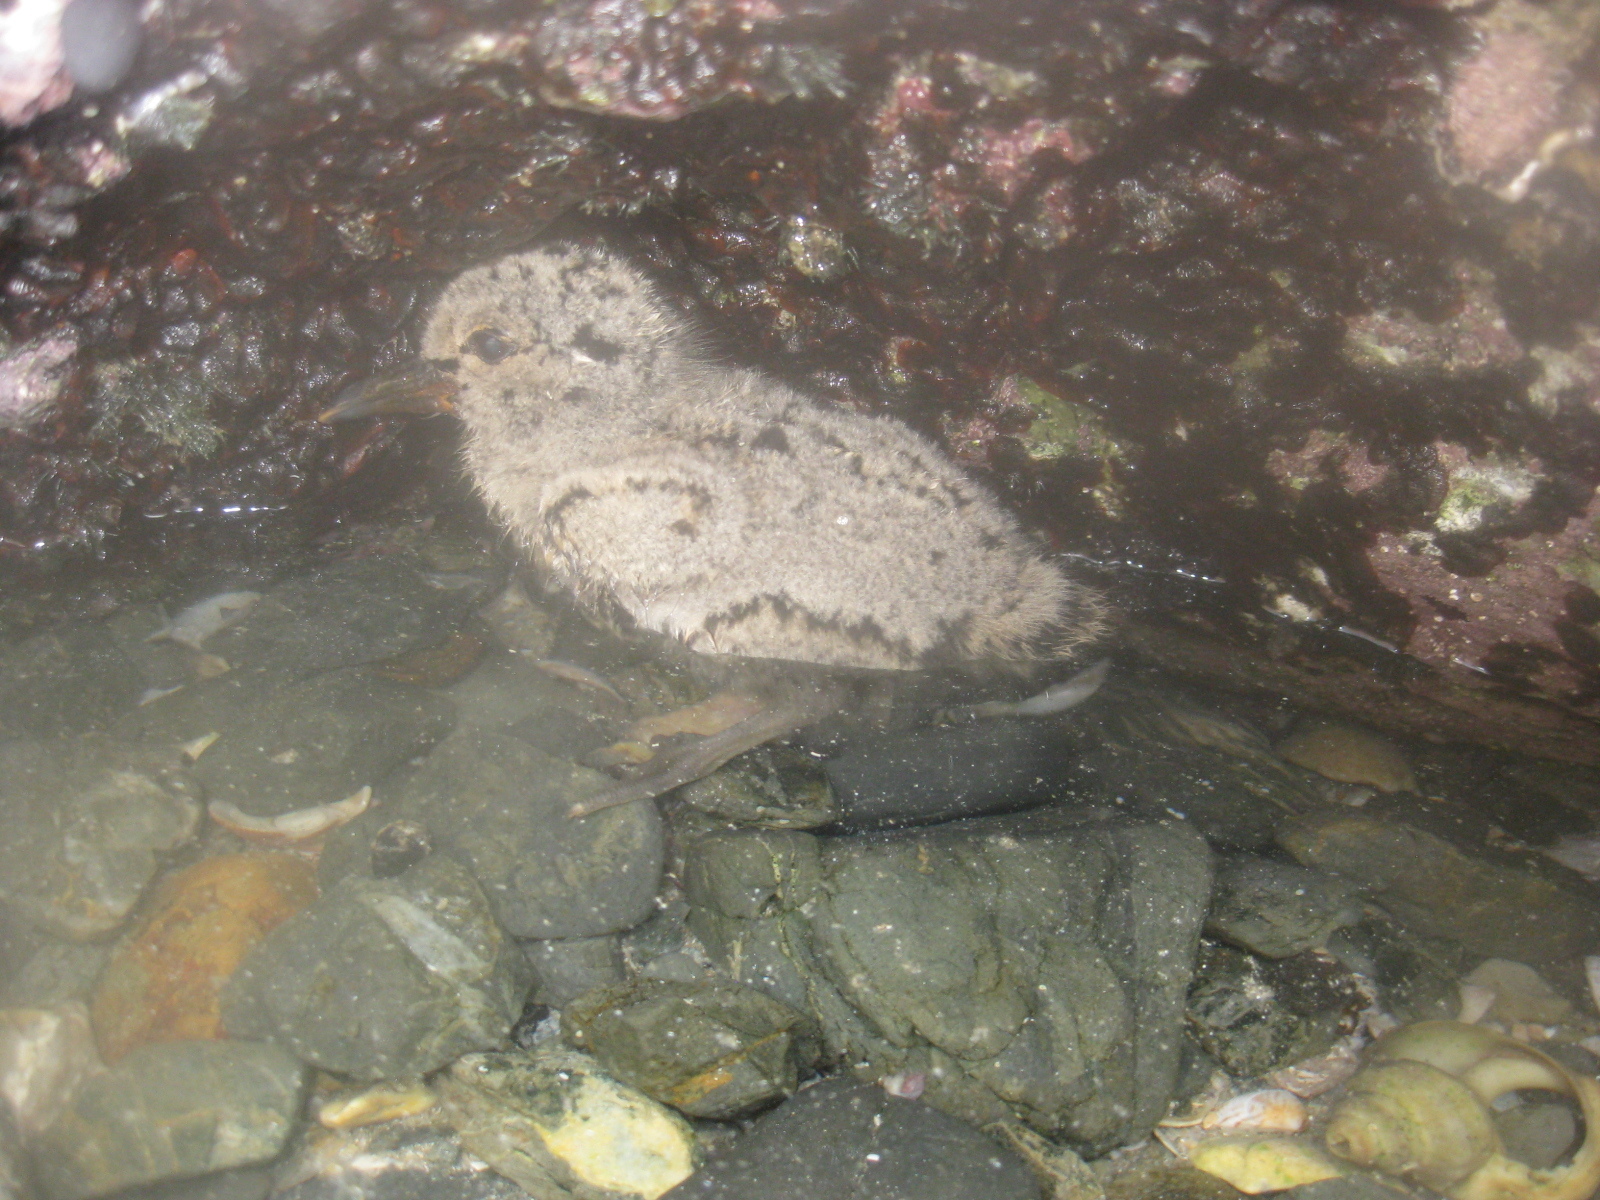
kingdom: Animalia
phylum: Chordata
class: Aves
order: Charadriiformes
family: Haematopodidae
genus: Haematopus
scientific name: Haematopus unicolor
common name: Variable oystercatcher
